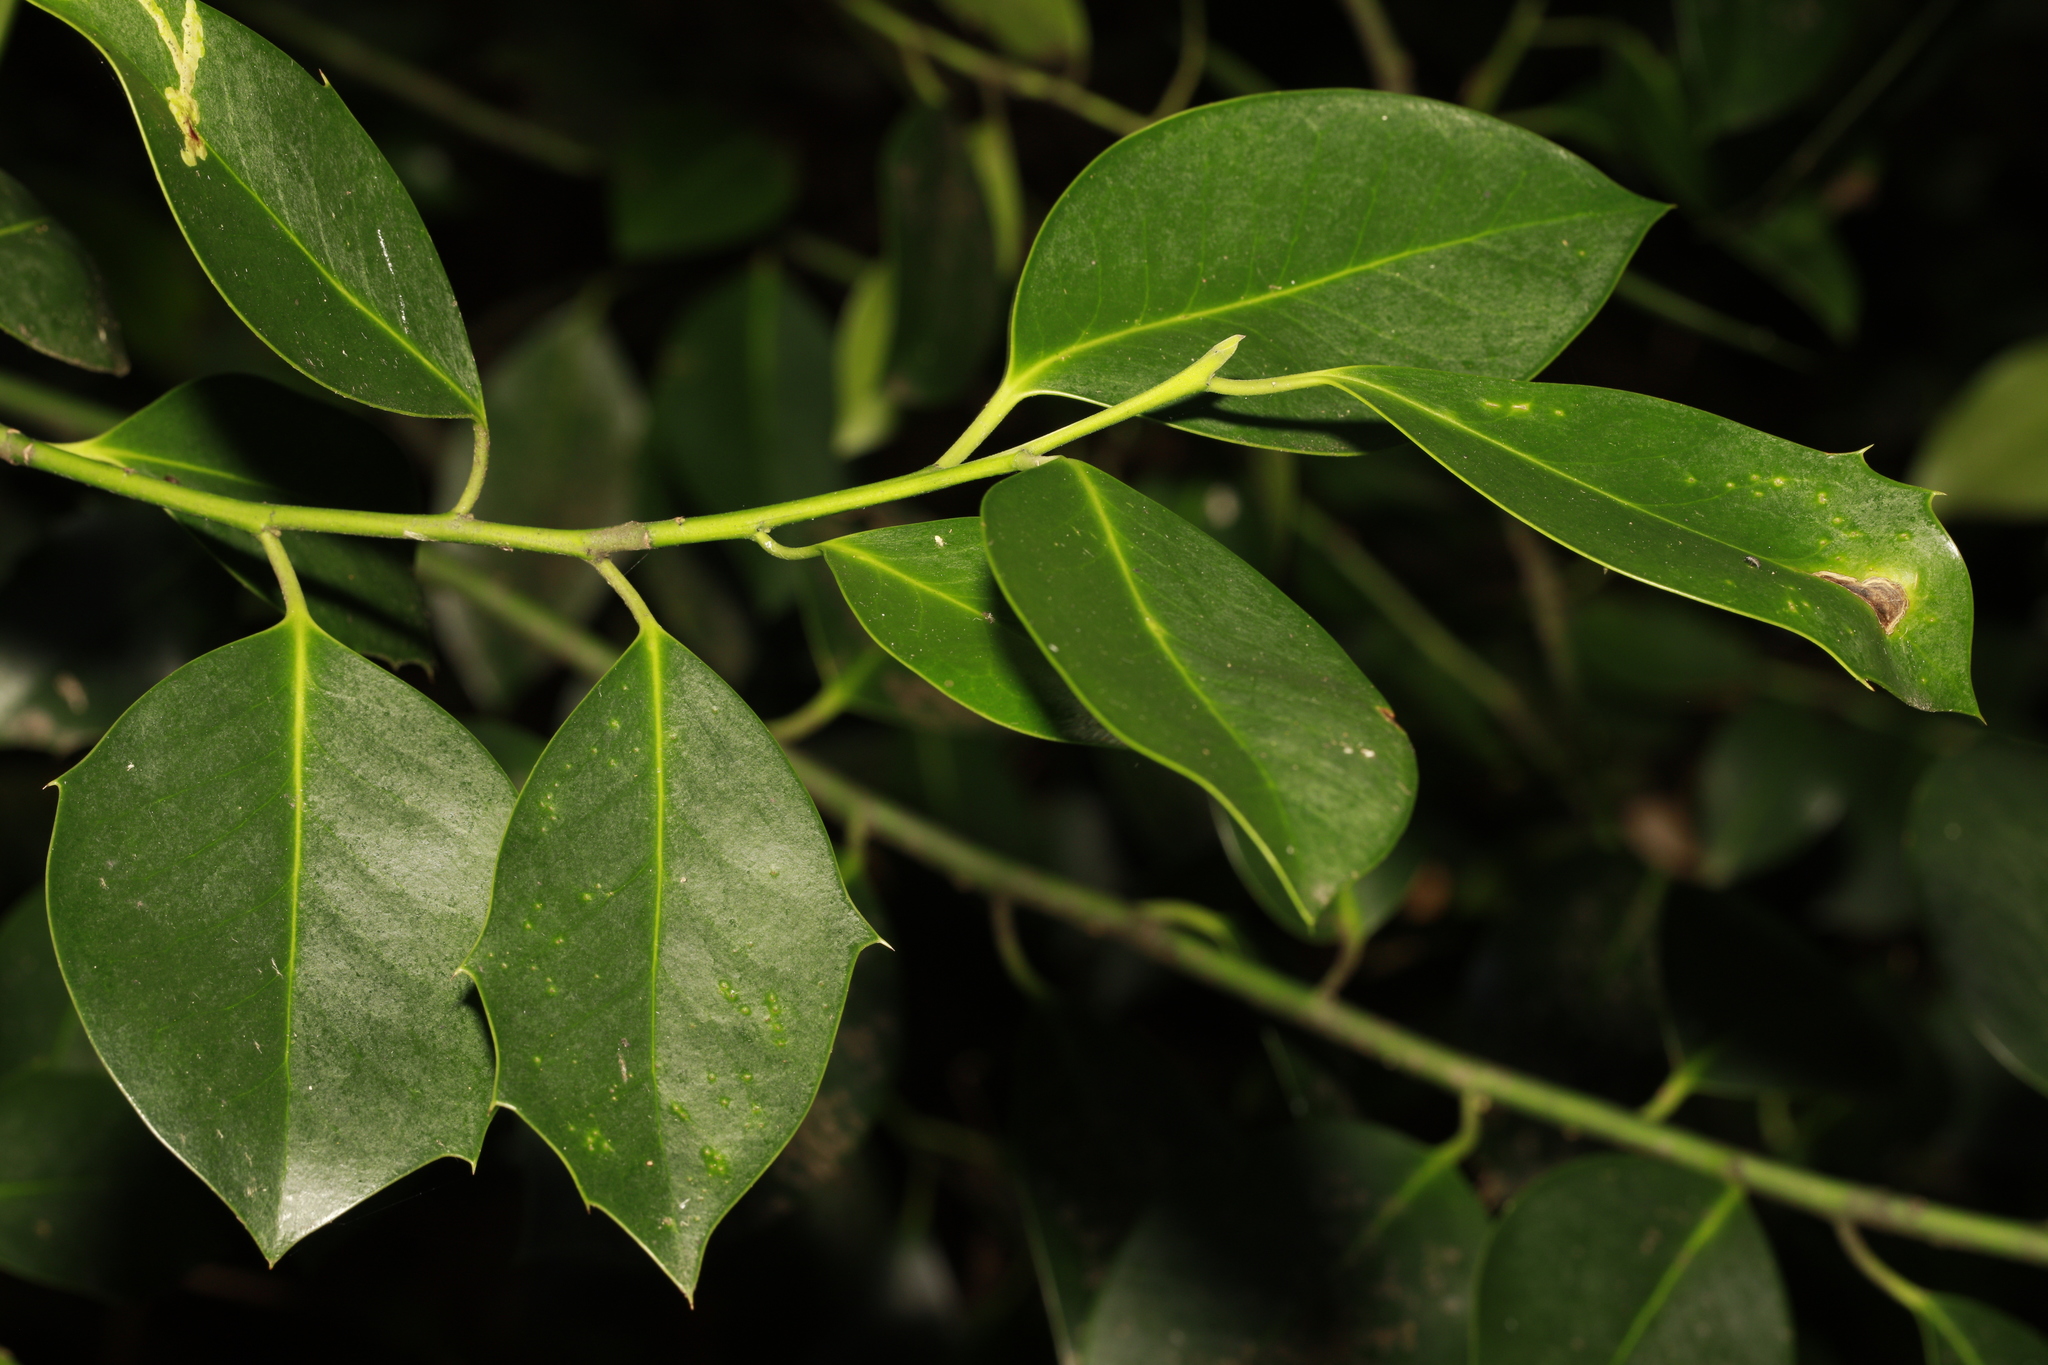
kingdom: Plantae
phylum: Tracheophyta
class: Magnoliopsida
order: Aquifoliales
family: Aquifoliaceae
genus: Ilex
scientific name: Ilex altaclerensis
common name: Highclere holly
